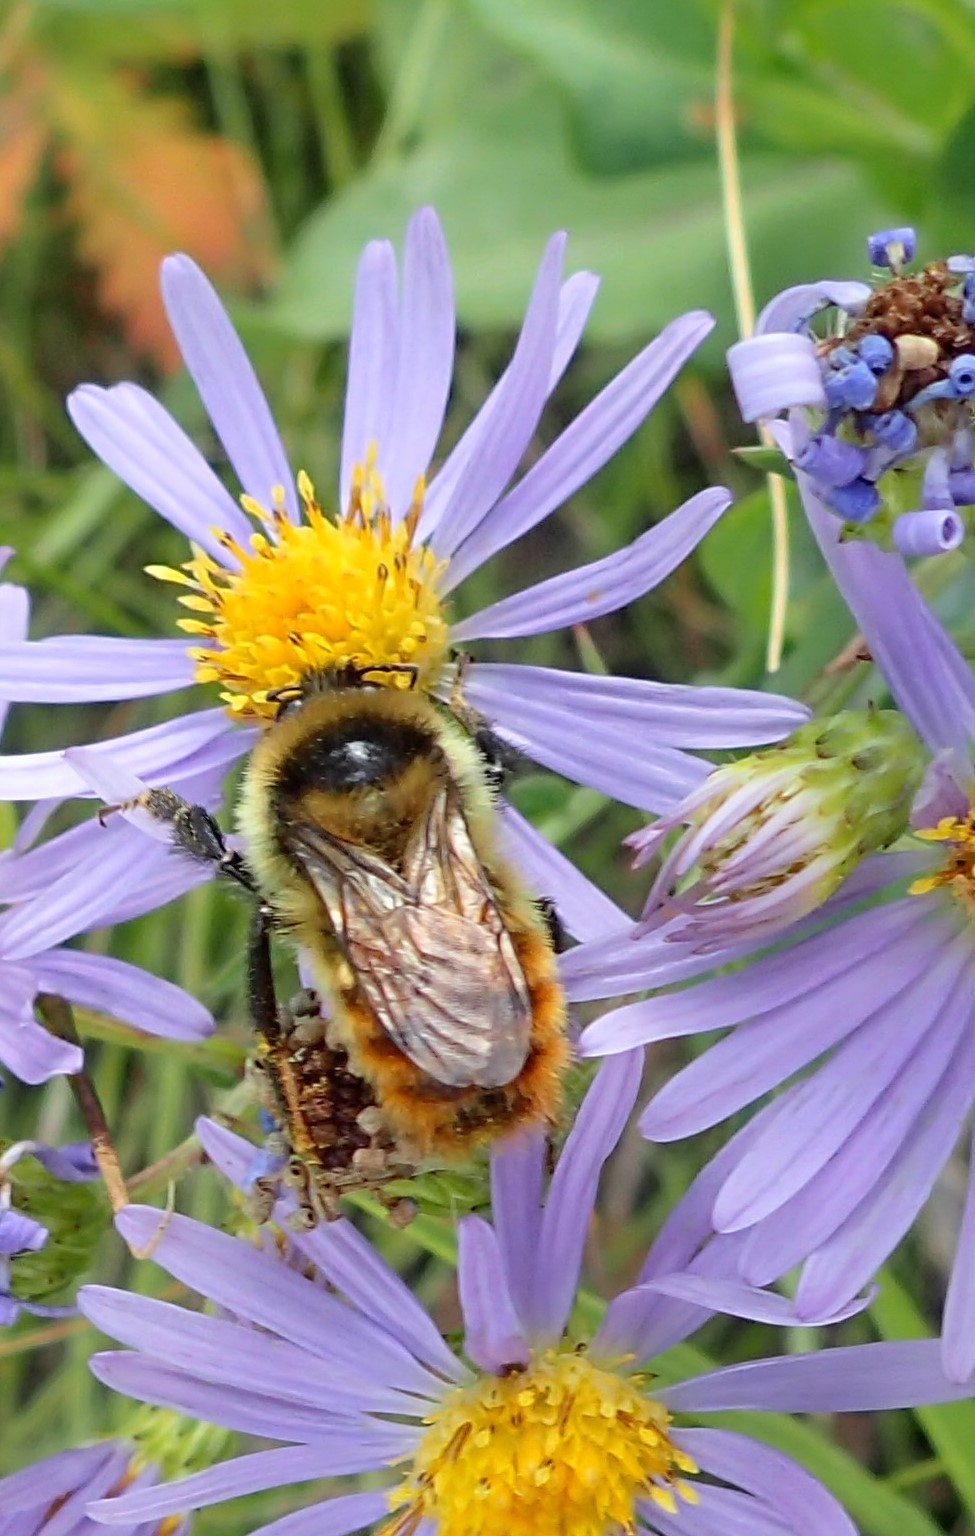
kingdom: Animalia
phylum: Arthropoda
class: Insecta
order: Hymenoptera
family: Apidae
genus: Bombus
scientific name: Bombus rufocinctus
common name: Red-belted bumble bee
